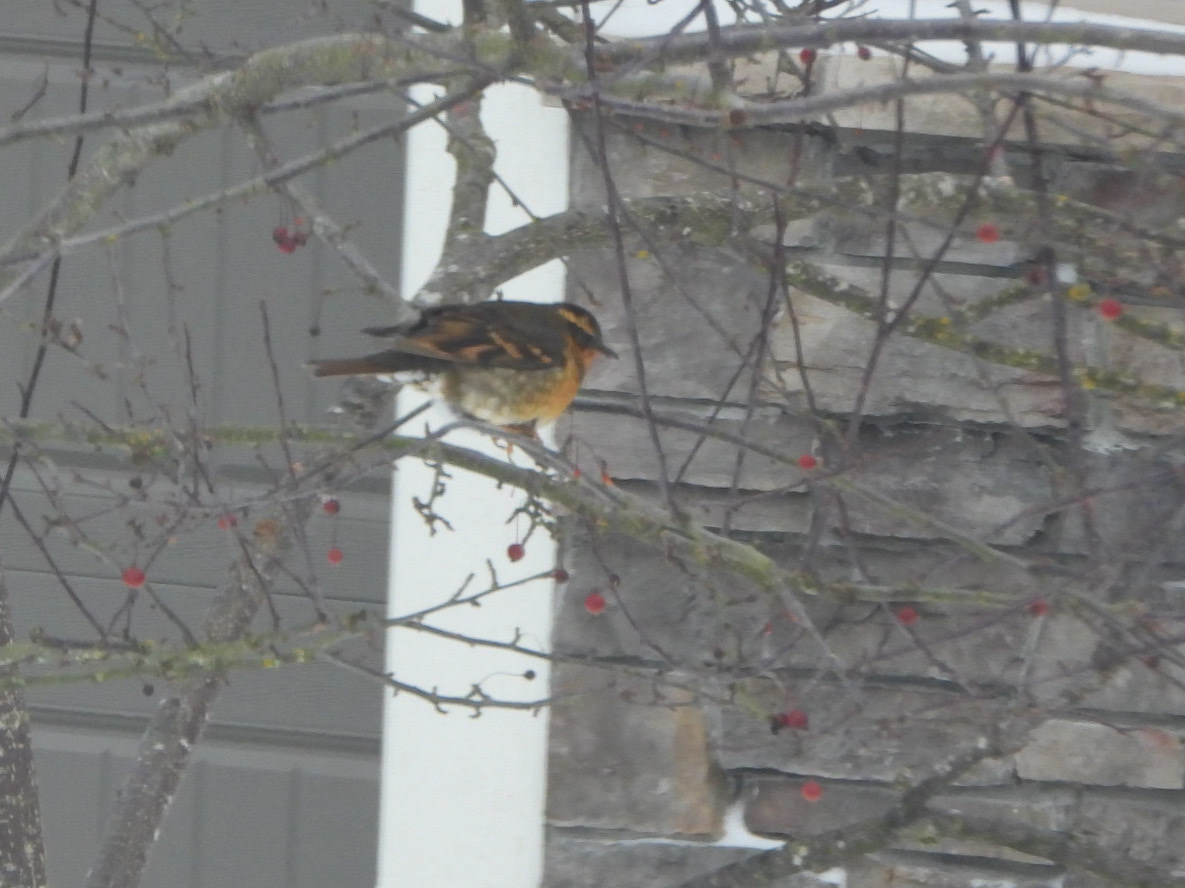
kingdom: Animalia
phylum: Chordata
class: Aves
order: Passeriformes
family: Turdidae
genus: Ixoreus
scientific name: Ixoreus naevius
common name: Varied thrush
